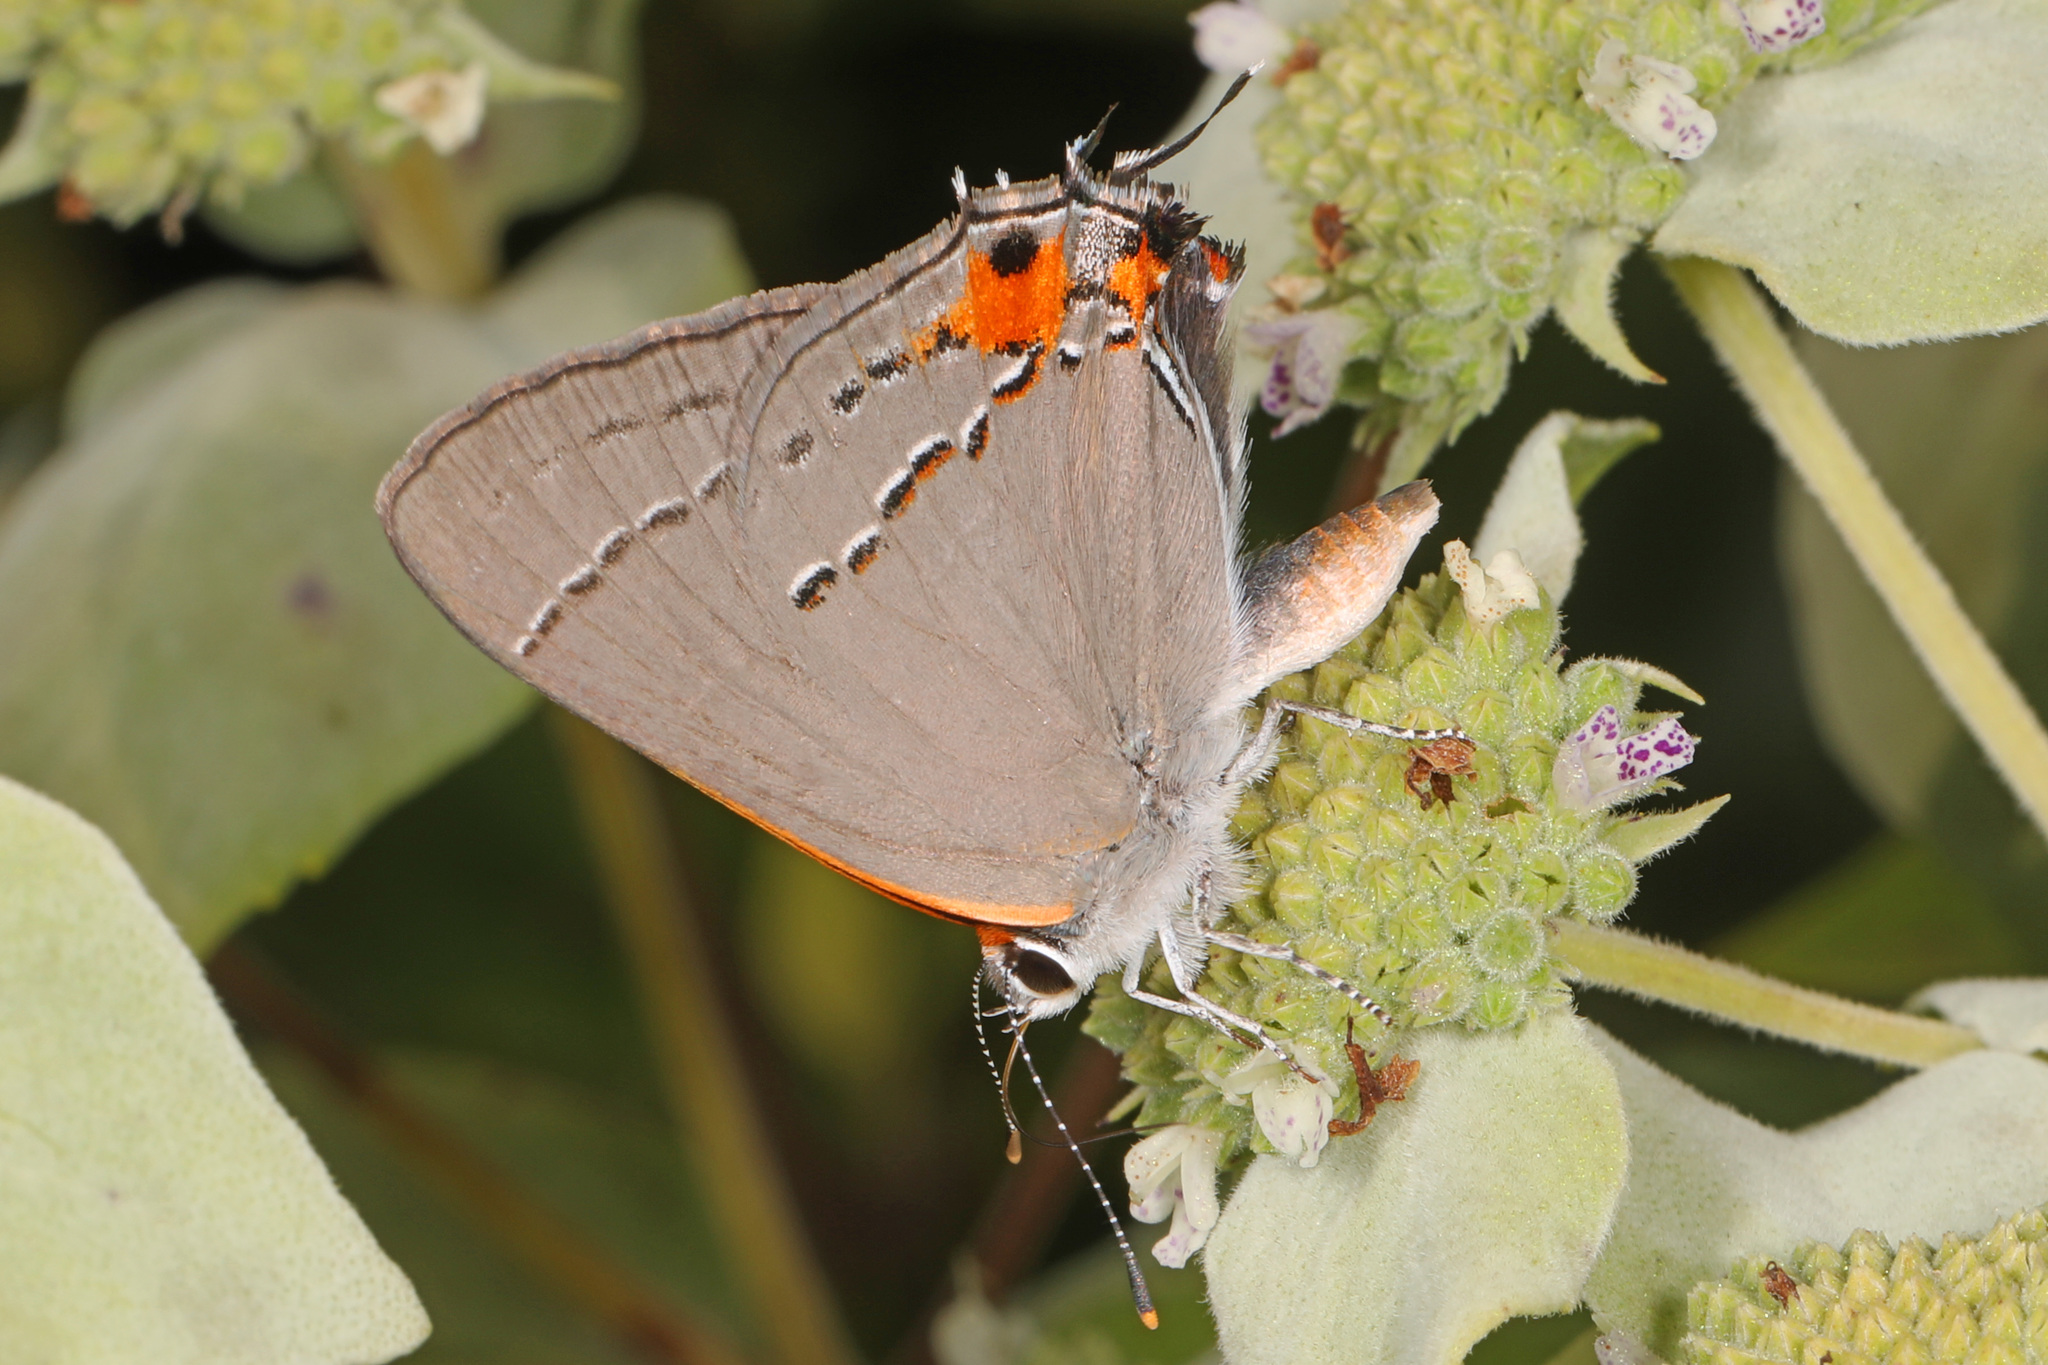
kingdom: Animalia
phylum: Arthropoda
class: Insecta
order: Lepidoptera
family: Lycaenidae
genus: Strymon
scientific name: Strymon melinus
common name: Gray hairstreak
